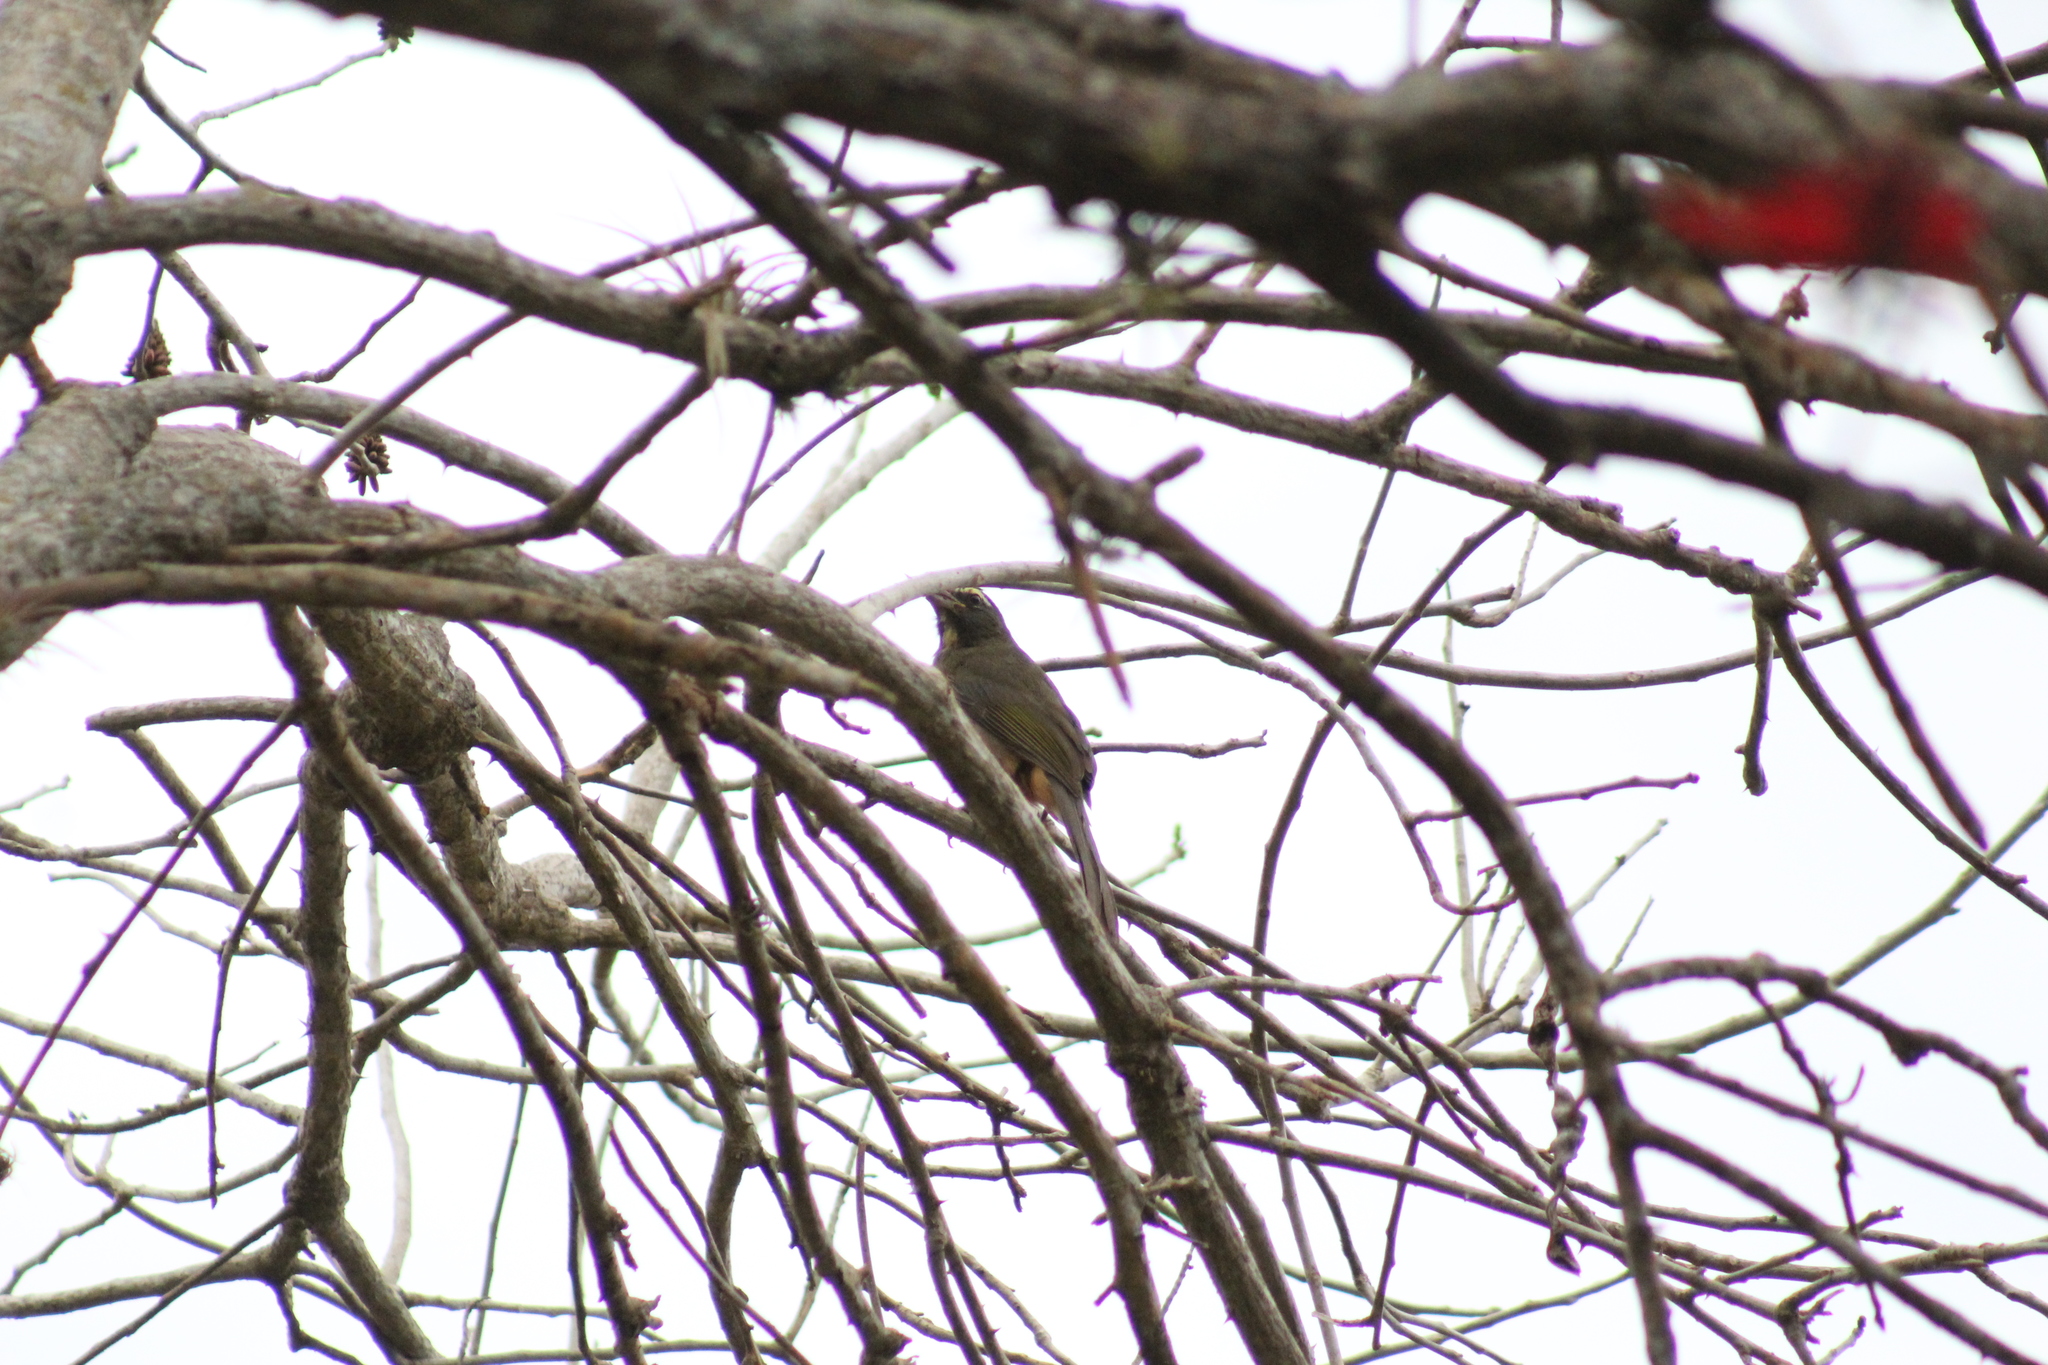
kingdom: Animalia
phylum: Chordata
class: Aves
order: Passeriformes
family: Thraupidae
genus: Saltator
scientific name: Saltator grandis
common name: Cinnamon-bellied saltator
